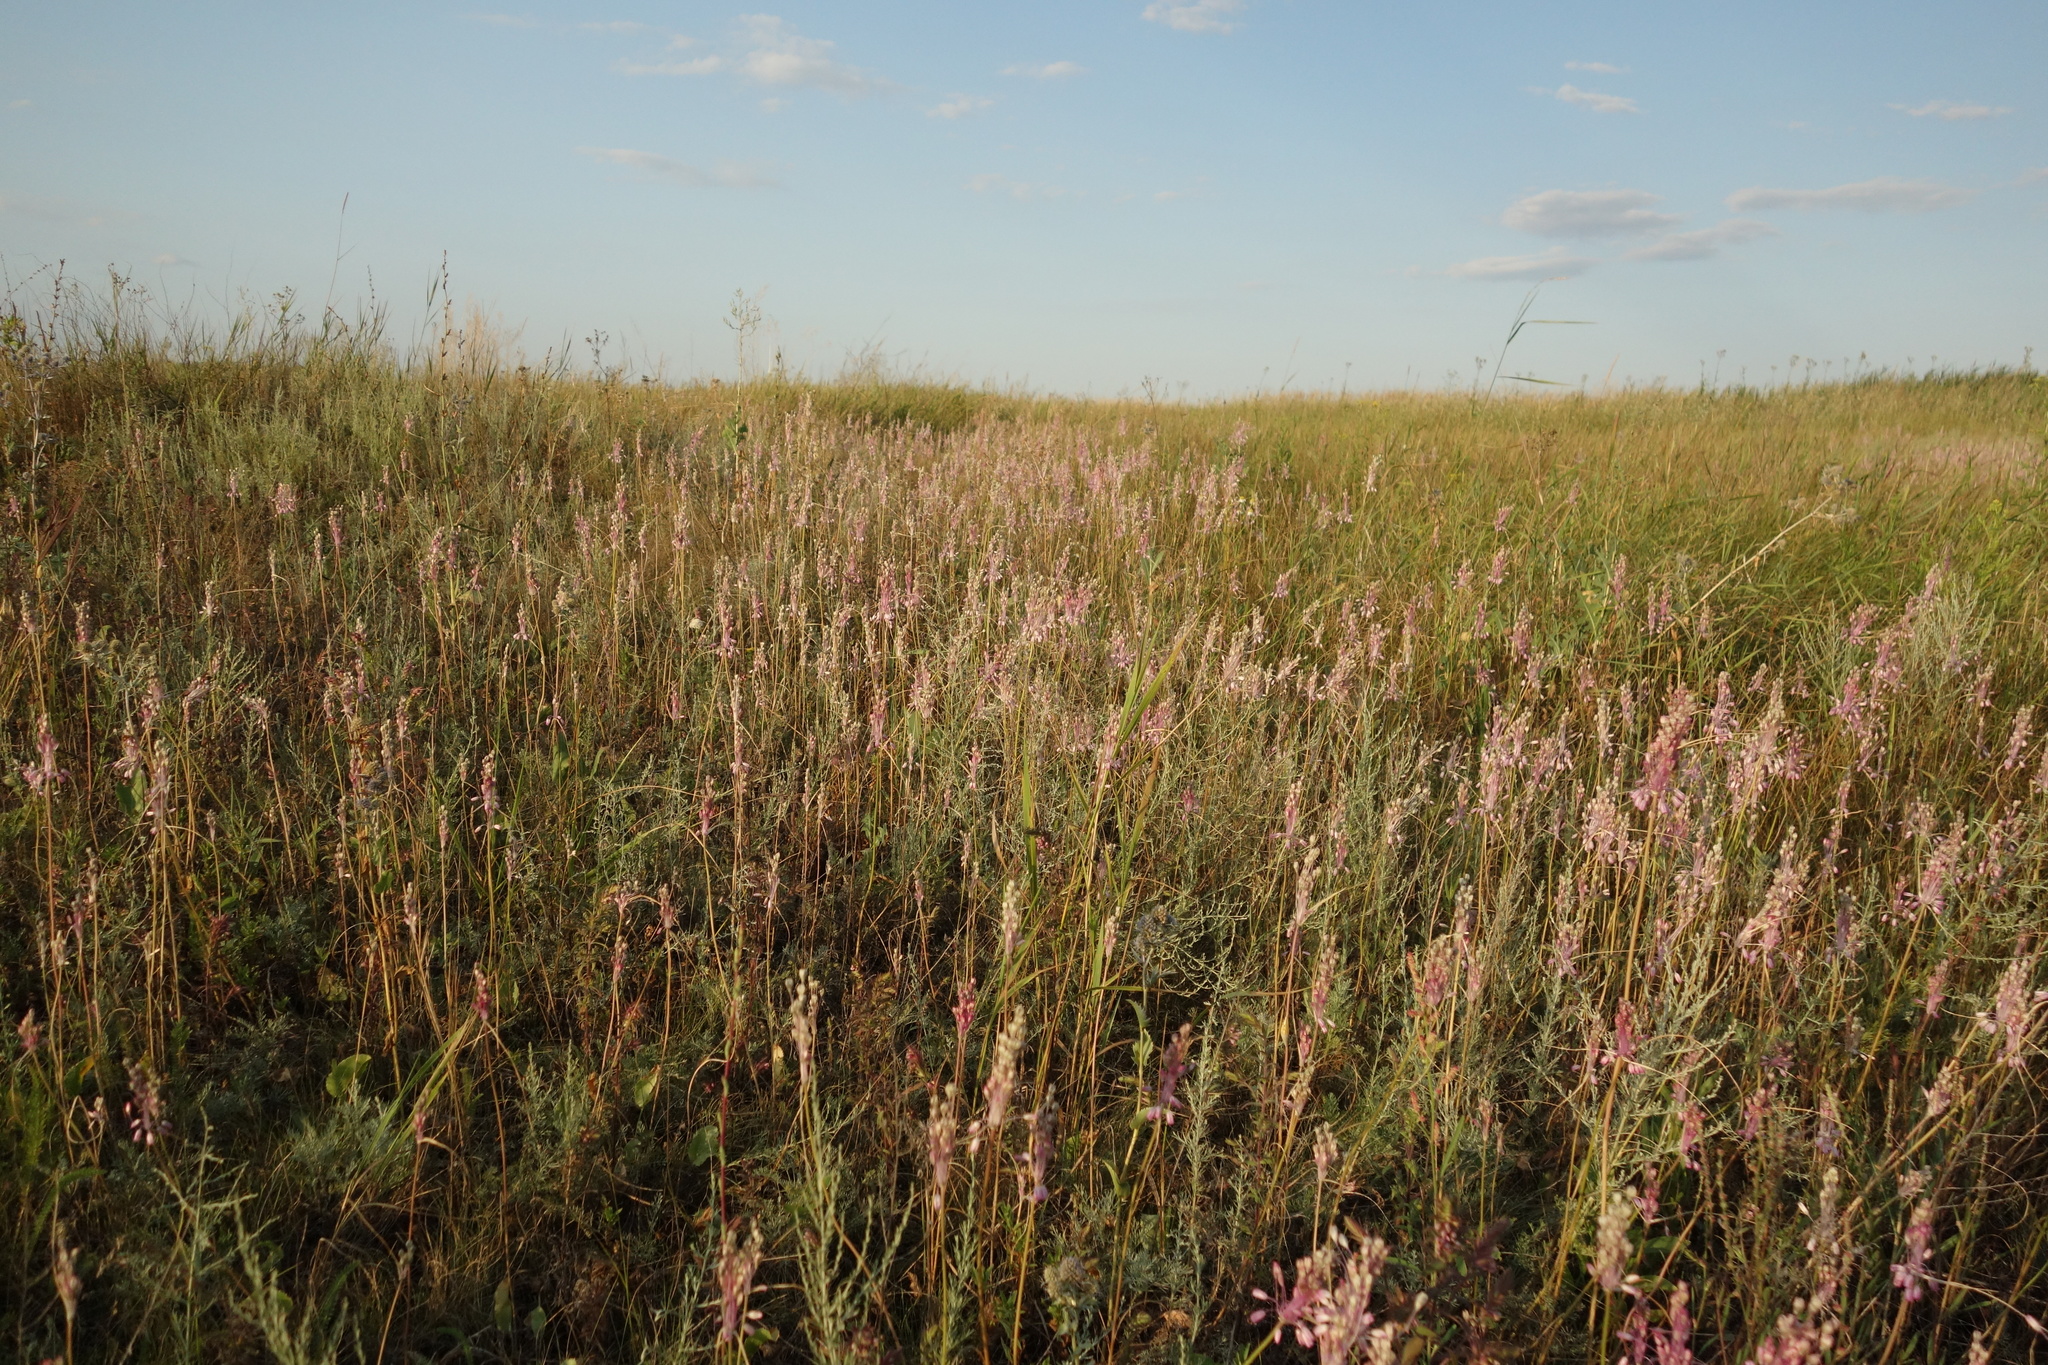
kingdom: Plantae
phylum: Tracheophyta
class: Liliopsida
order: Asparagales
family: Amaryllidaceae
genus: Allium
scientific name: Allium praescissum
